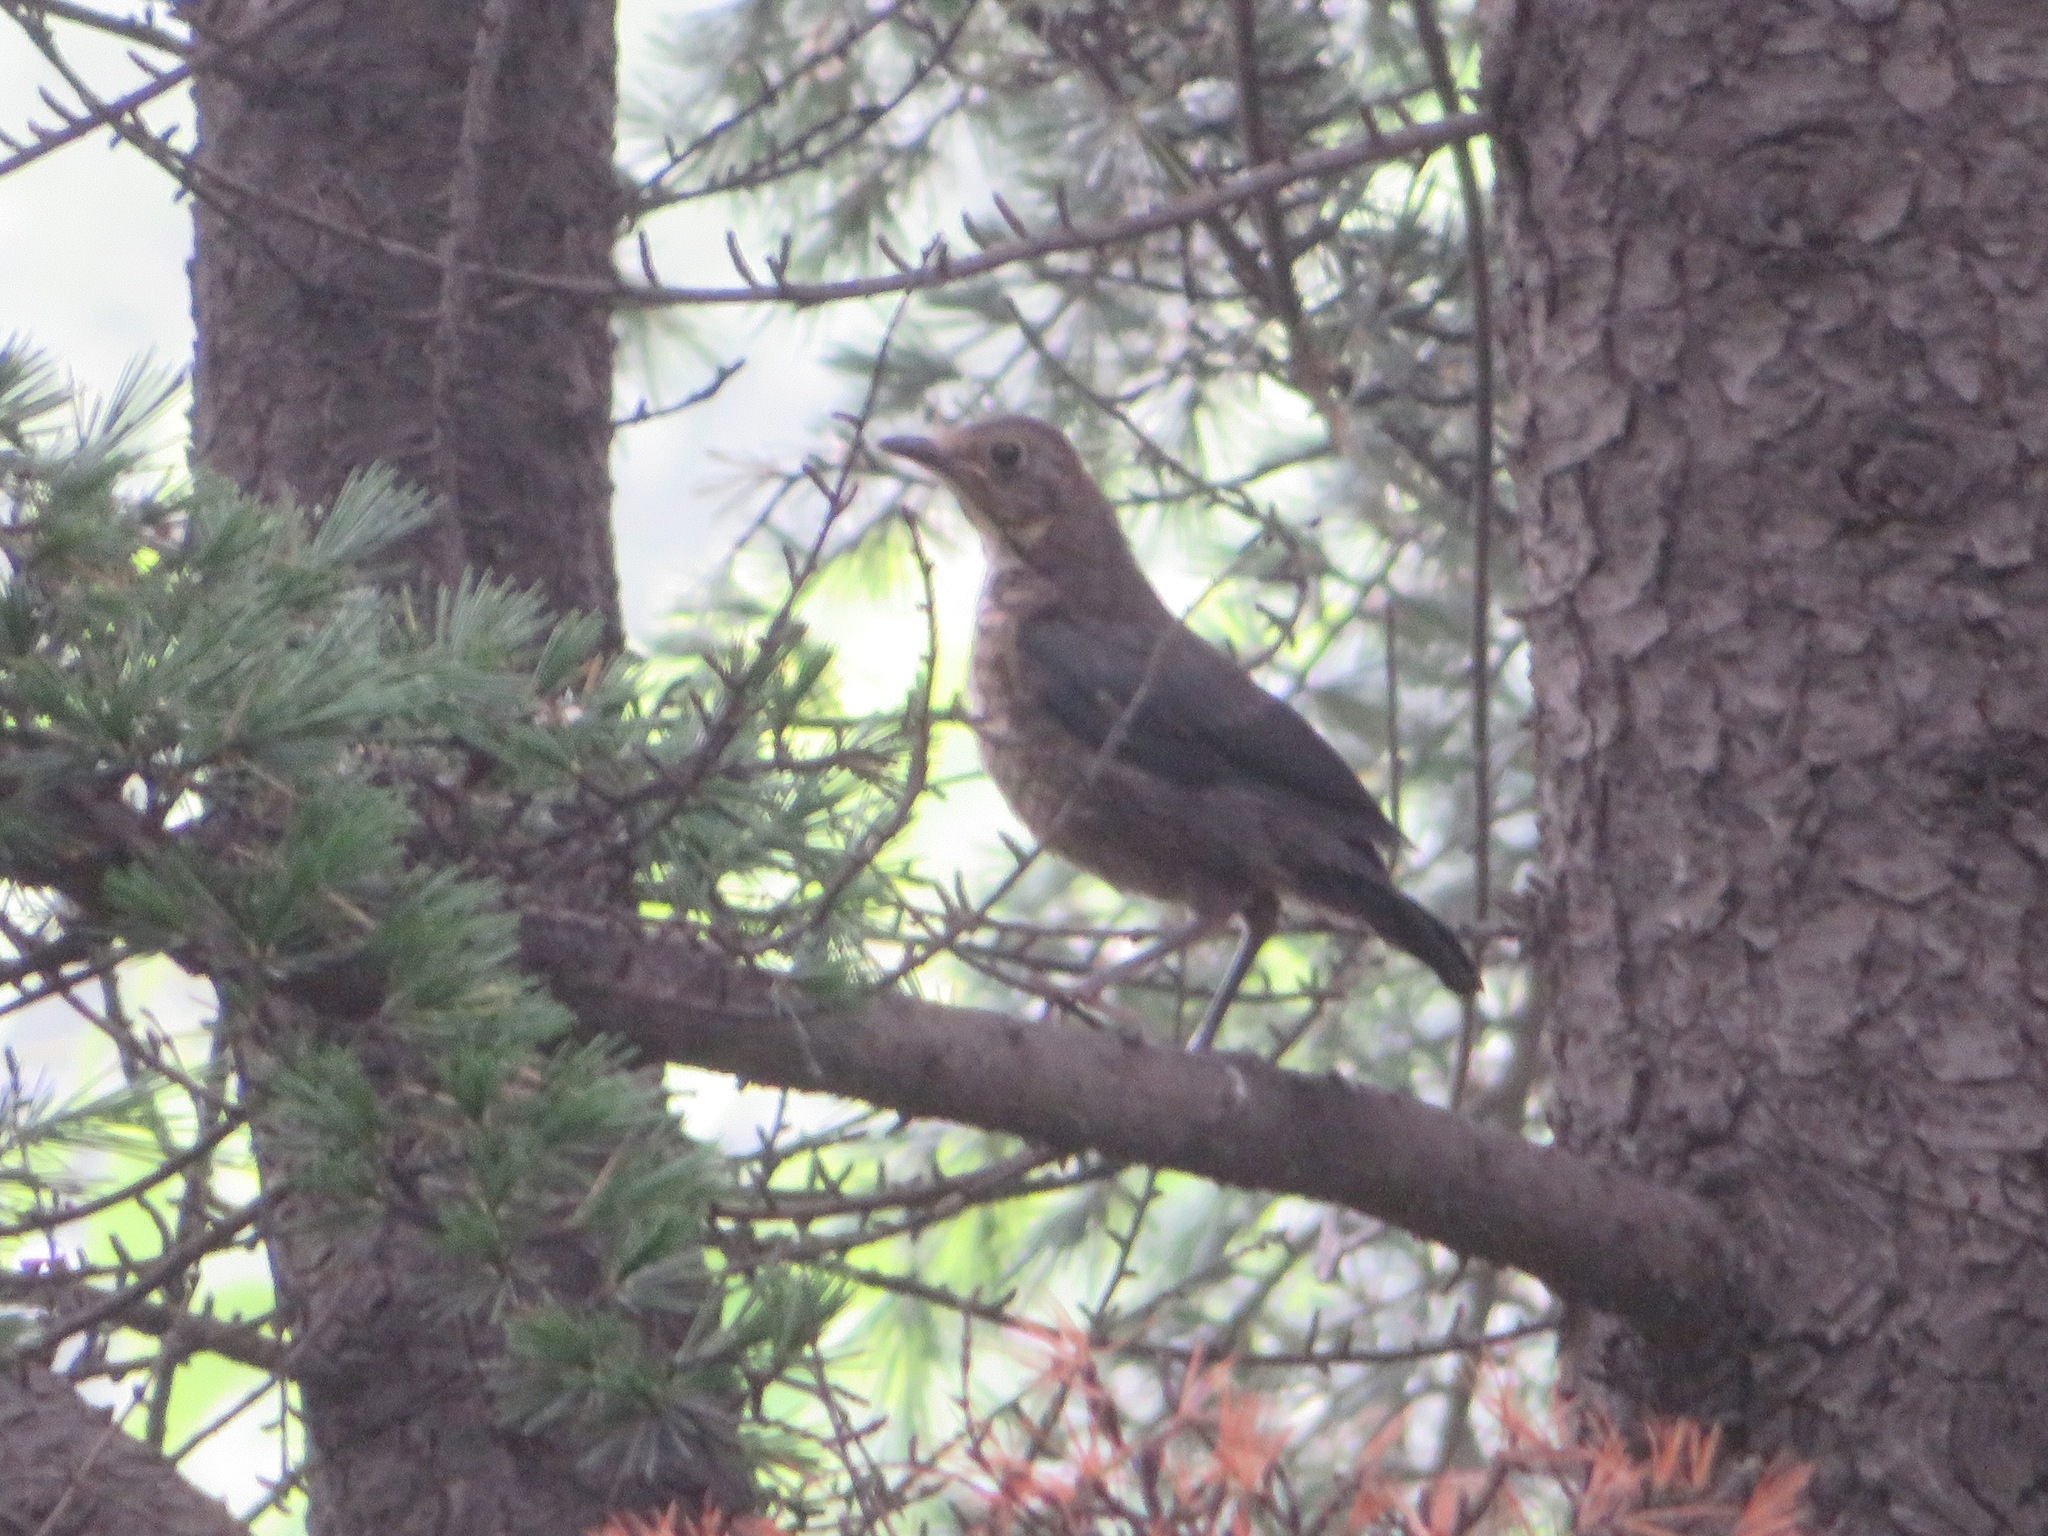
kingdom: Animalia
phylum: Chordata
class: Aves
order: Passeriformes
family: Turdidae
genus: Turdus
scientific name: Turdus mandarinus
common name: Chinese blackbird
